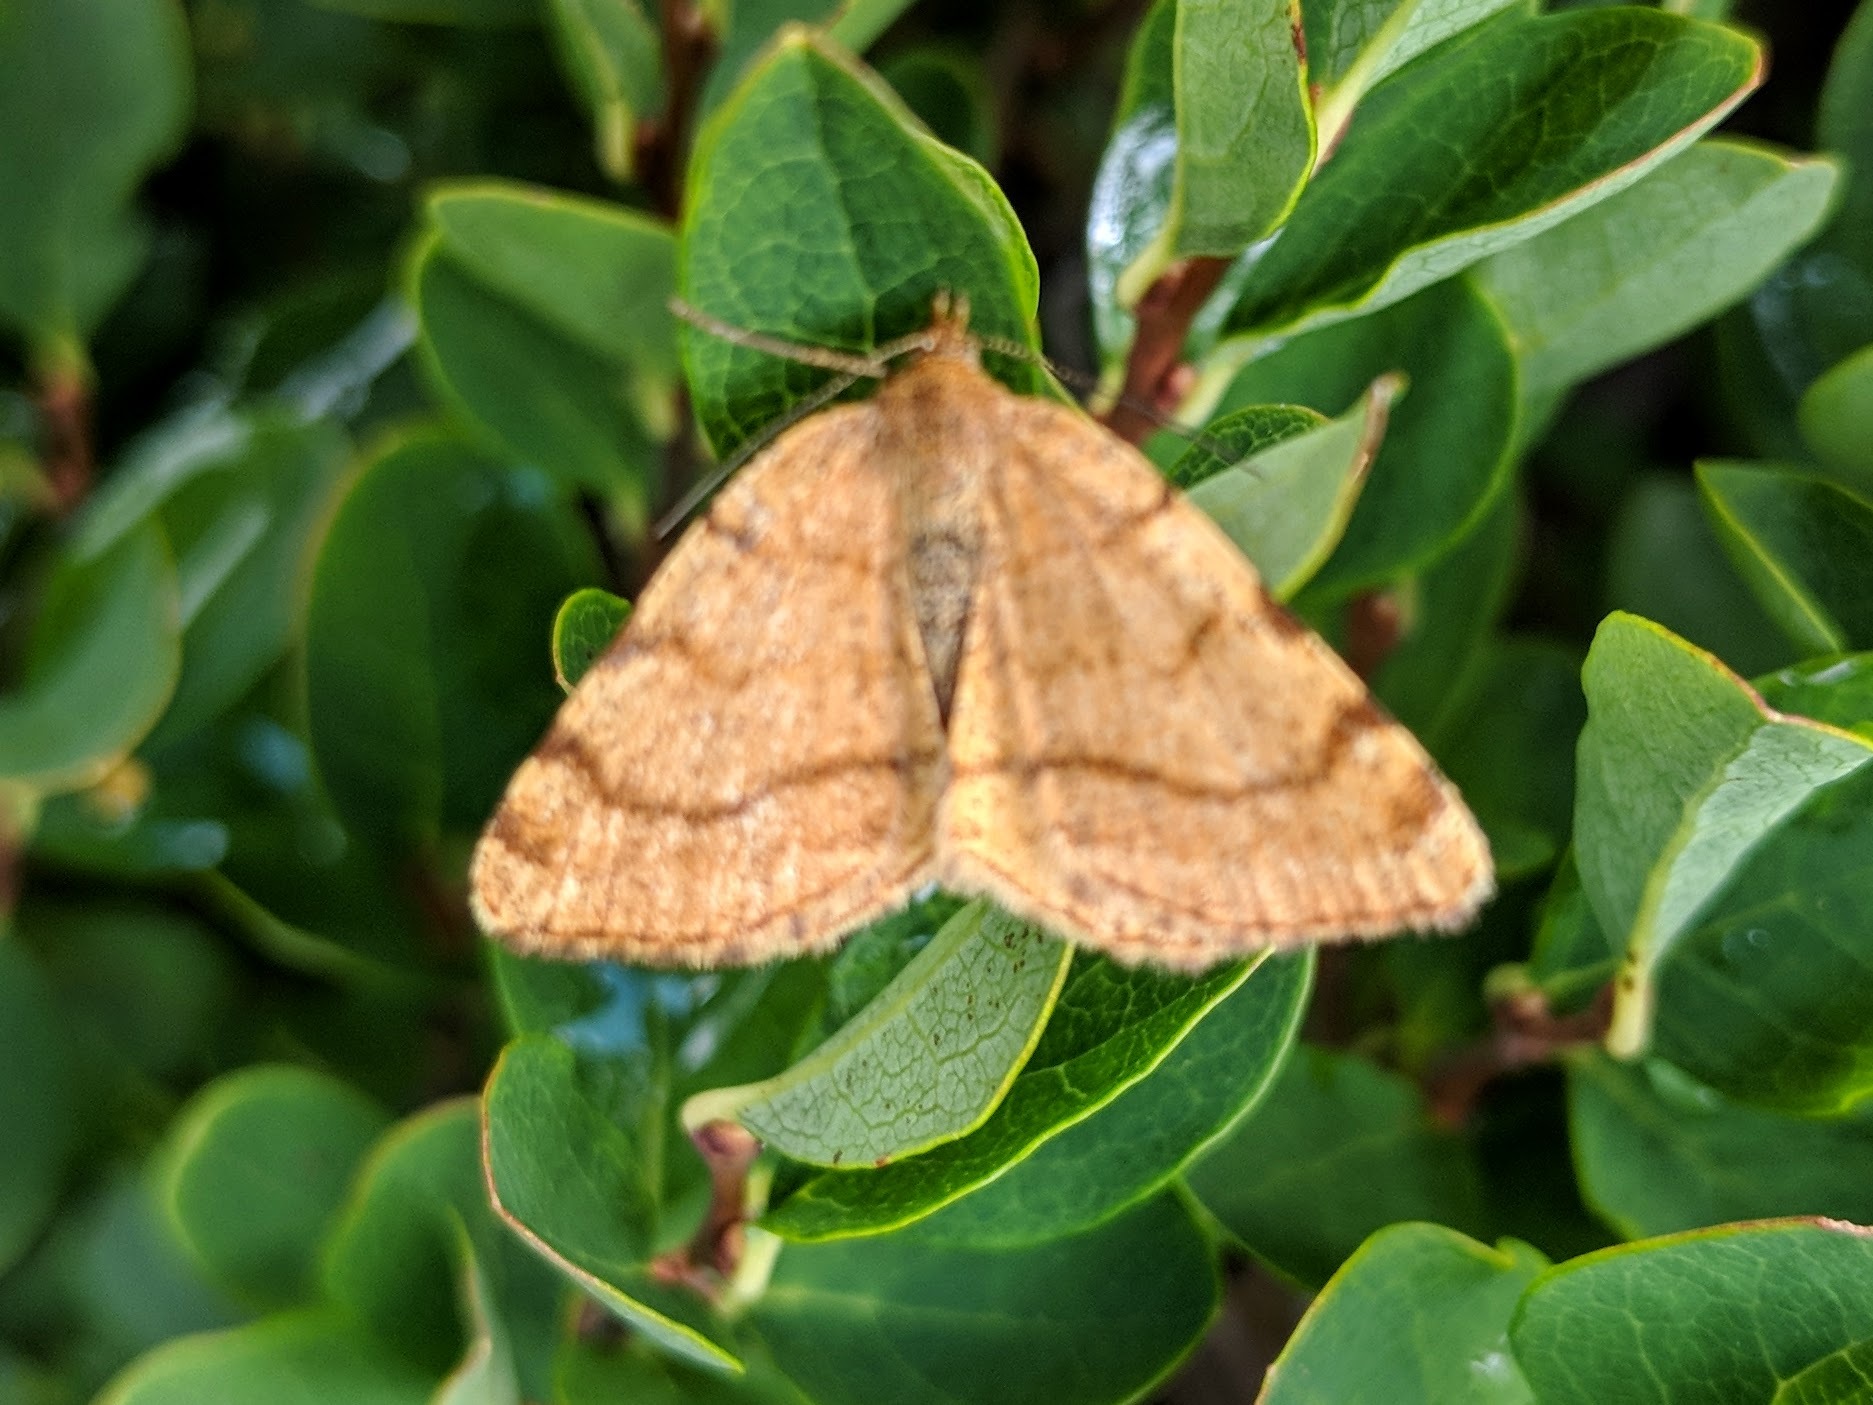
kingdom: Animalia
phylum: Arthropoda
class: Insecta
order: Lepidoptera
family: Geometridae
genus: Macaria
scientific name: Macaria brunneata
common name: Rannoch looper
